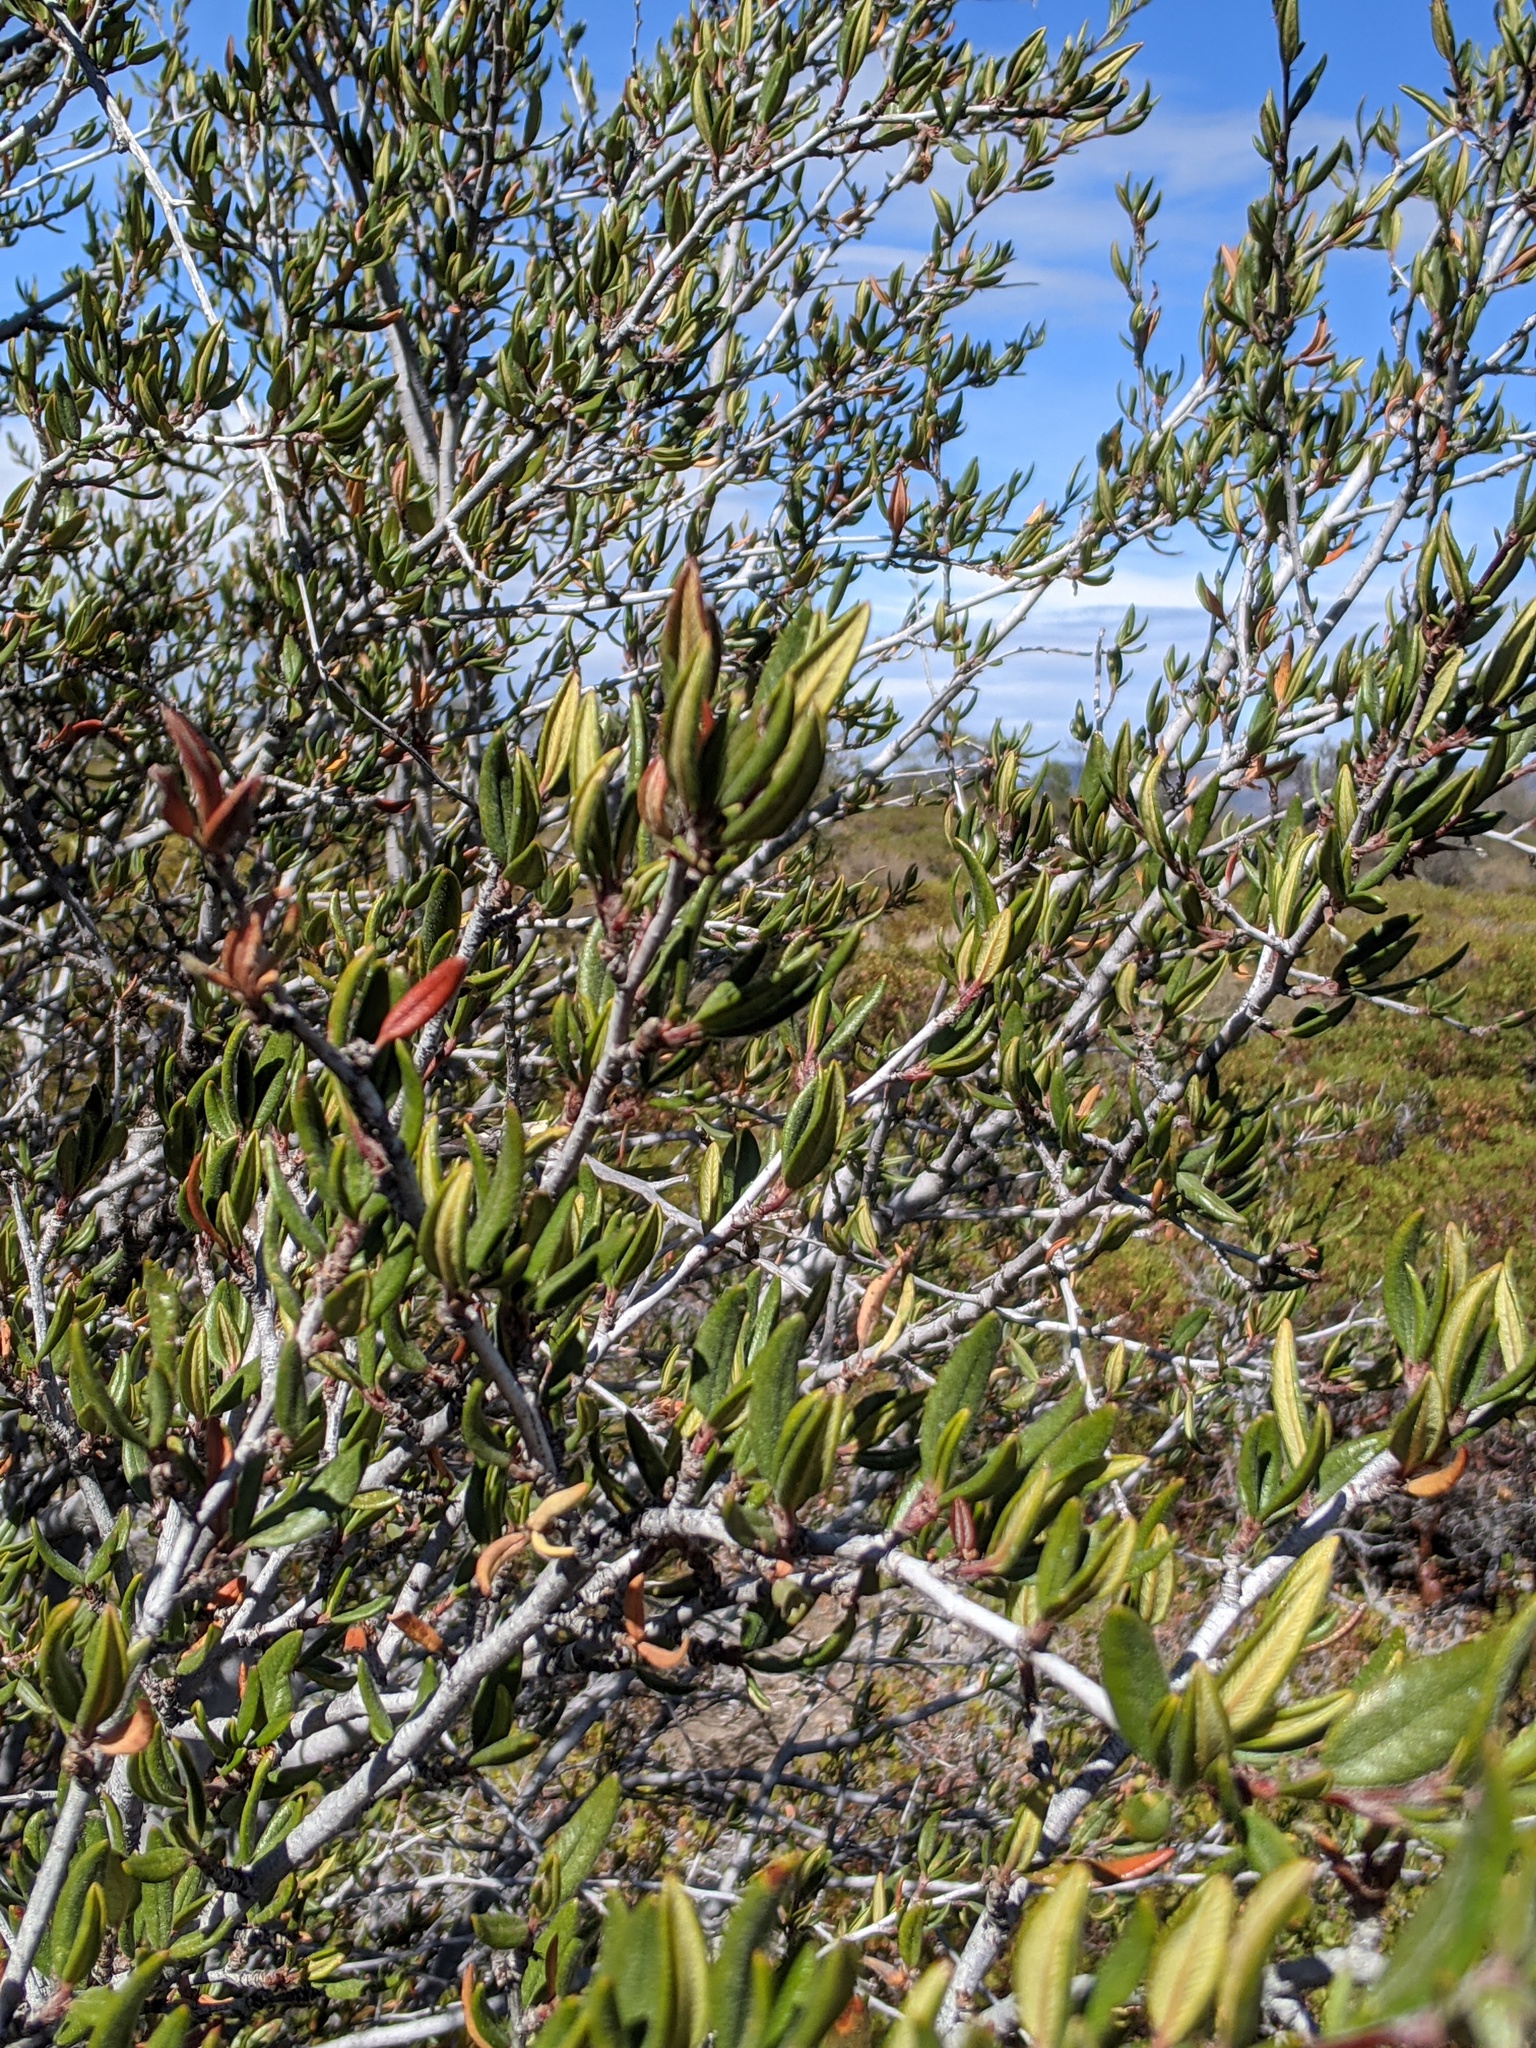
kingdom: Plantae
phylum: Tracheophyta
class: Magnoliopsida
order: Rosales
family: Rosaceae
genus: Cercocarpus
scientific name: Cercocarpus ledifolius
